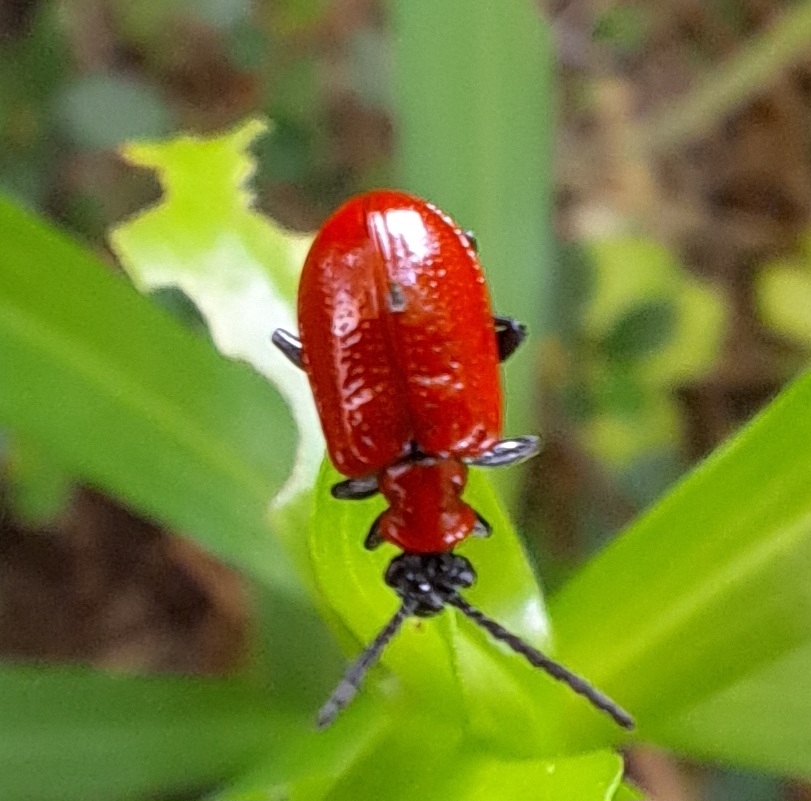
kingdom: Animalia
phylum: Arthropoda
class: Insecta
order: Coleoptera
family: Chrysomelidae
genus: Lilioceris
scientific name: Lilioceris lilii
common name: Lily beetle
